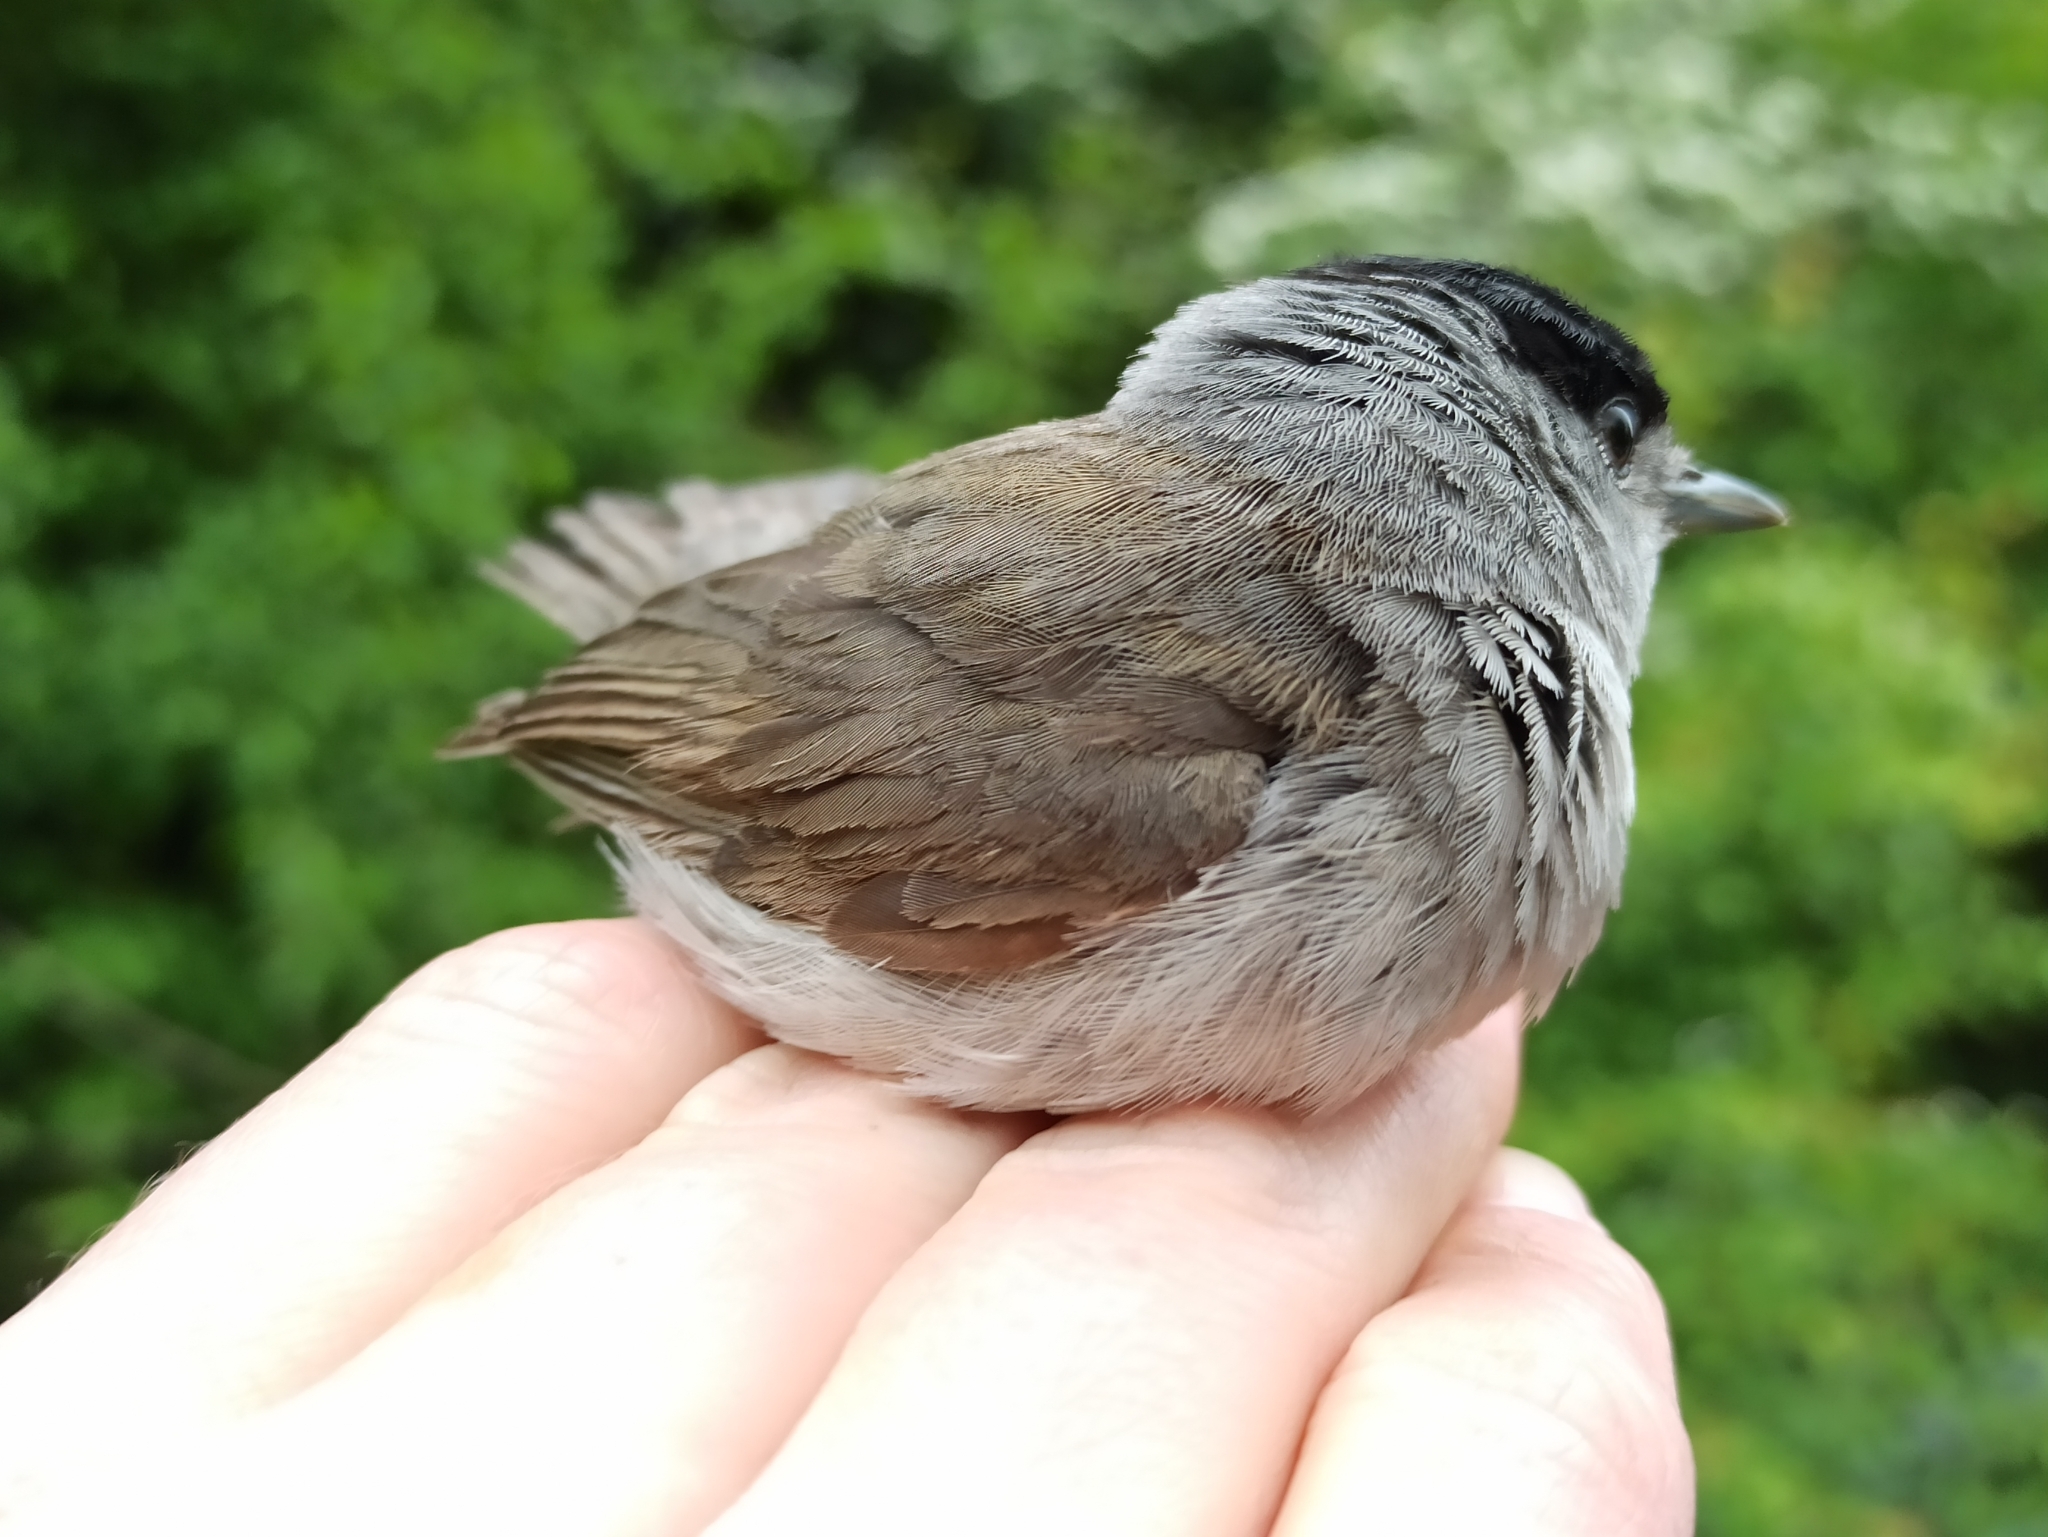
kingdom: Animalia
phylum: Chordata
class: Aves
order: Passeriformes
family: Sylviidae
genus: Sylvia
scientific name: Sylvia atricapilla
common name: Eurasian blackcap
